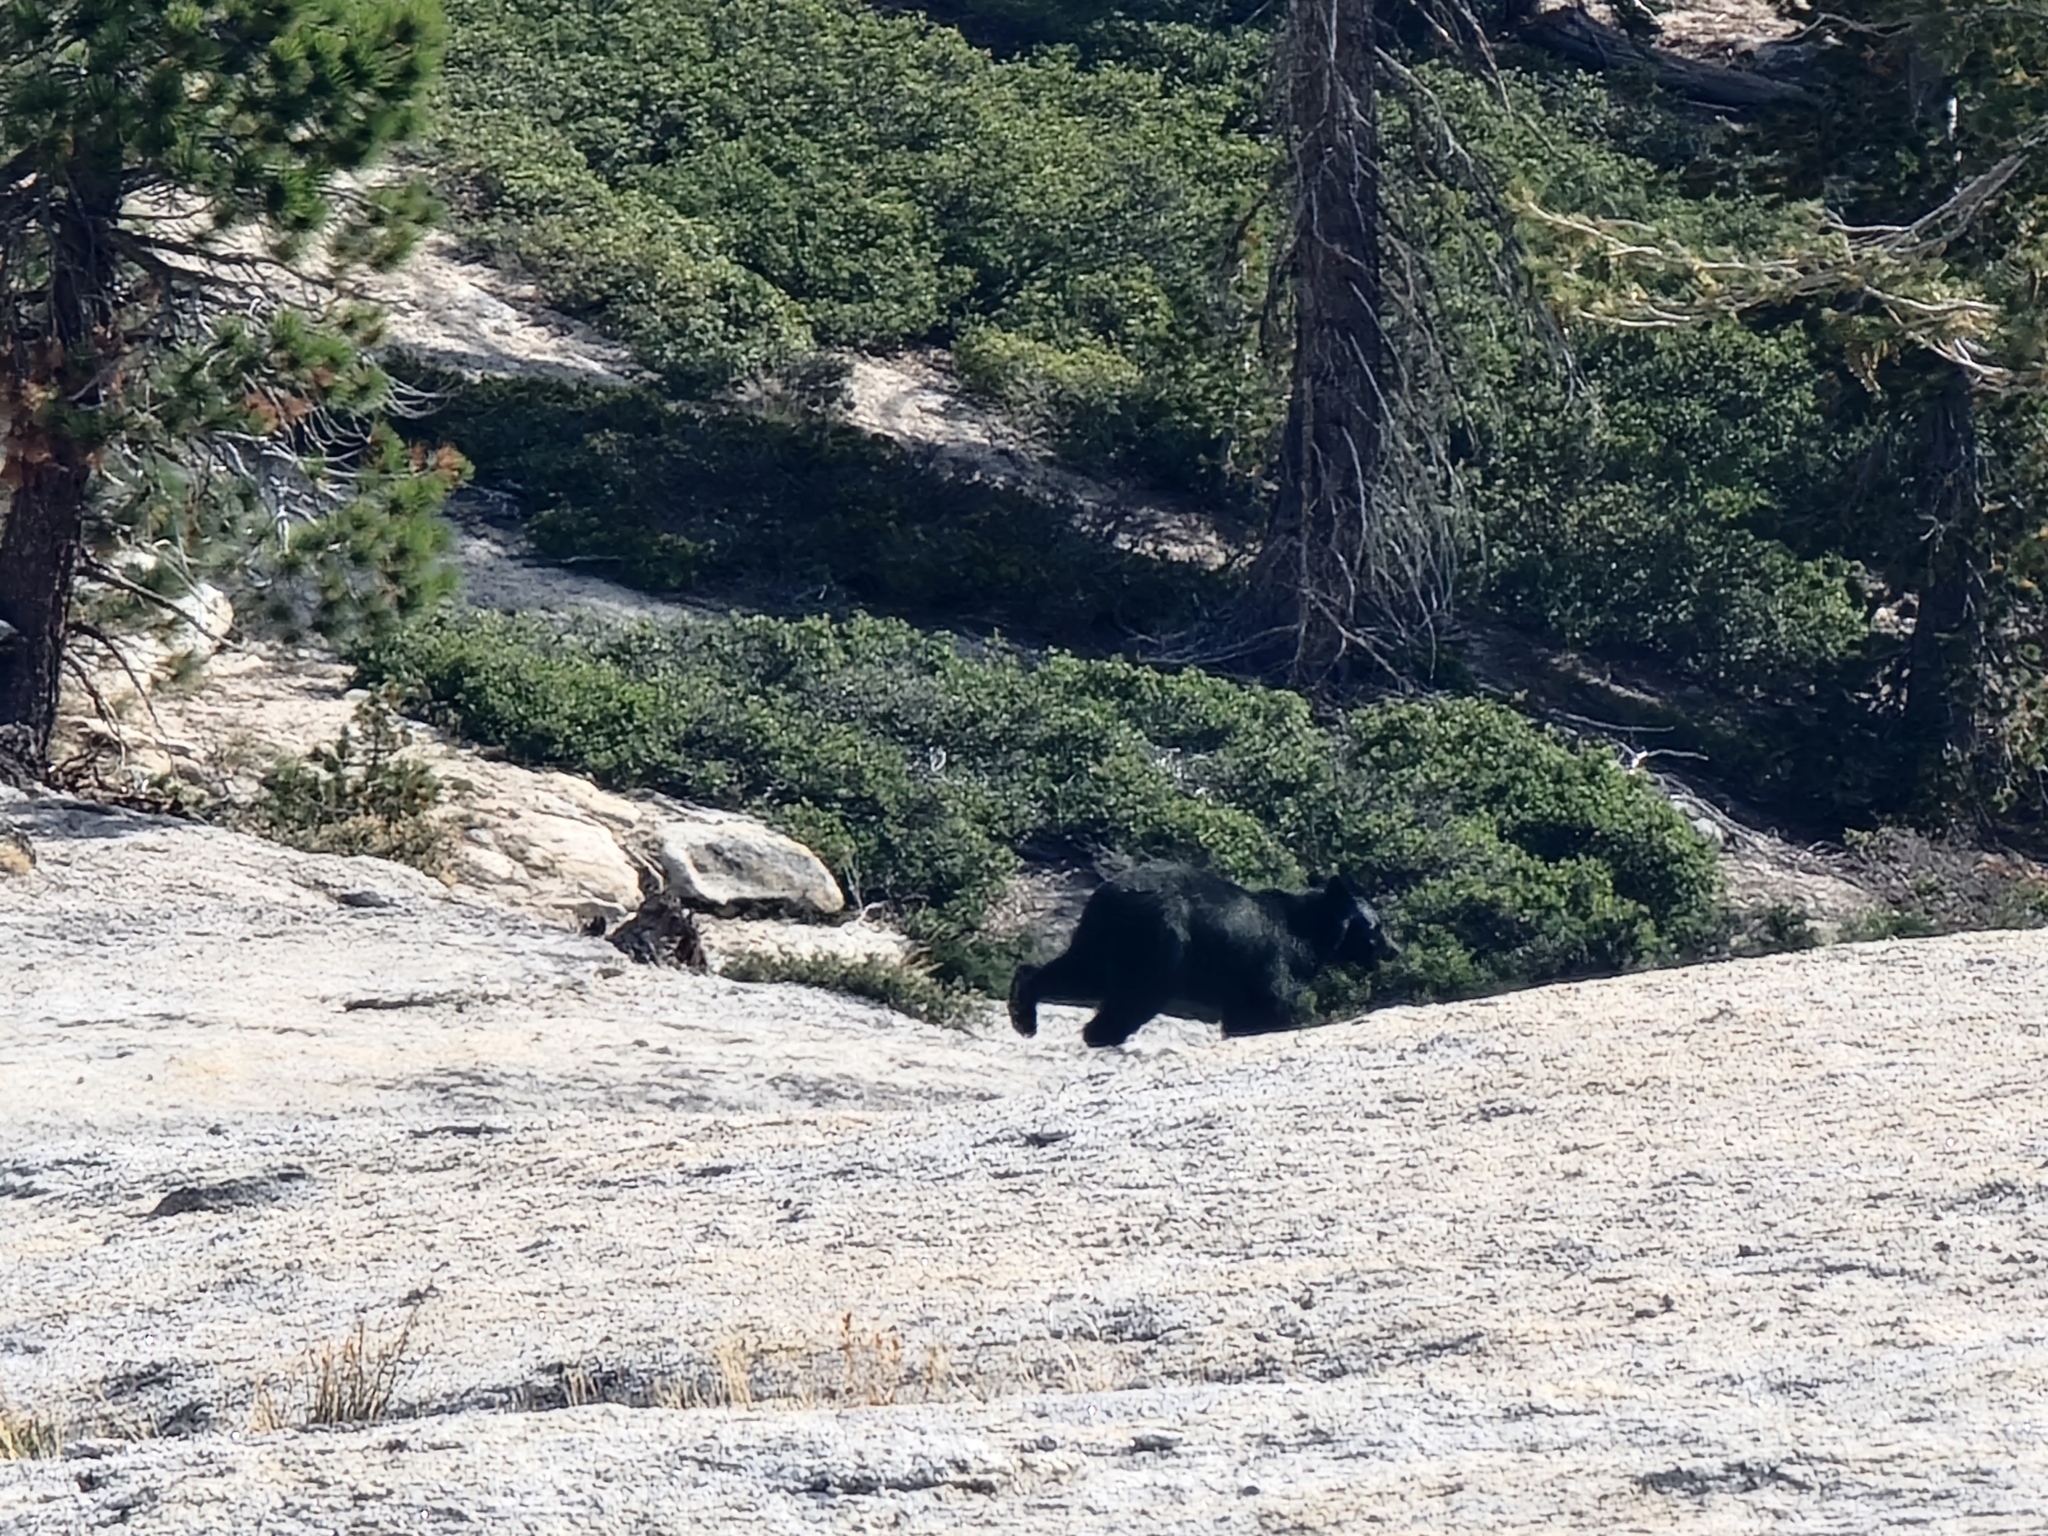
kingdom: Animalia
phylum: Chordata
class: Mammalia
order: Carnivora
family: Ursidae
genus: Ursus
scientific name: Ursus americanus
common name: American black bear
